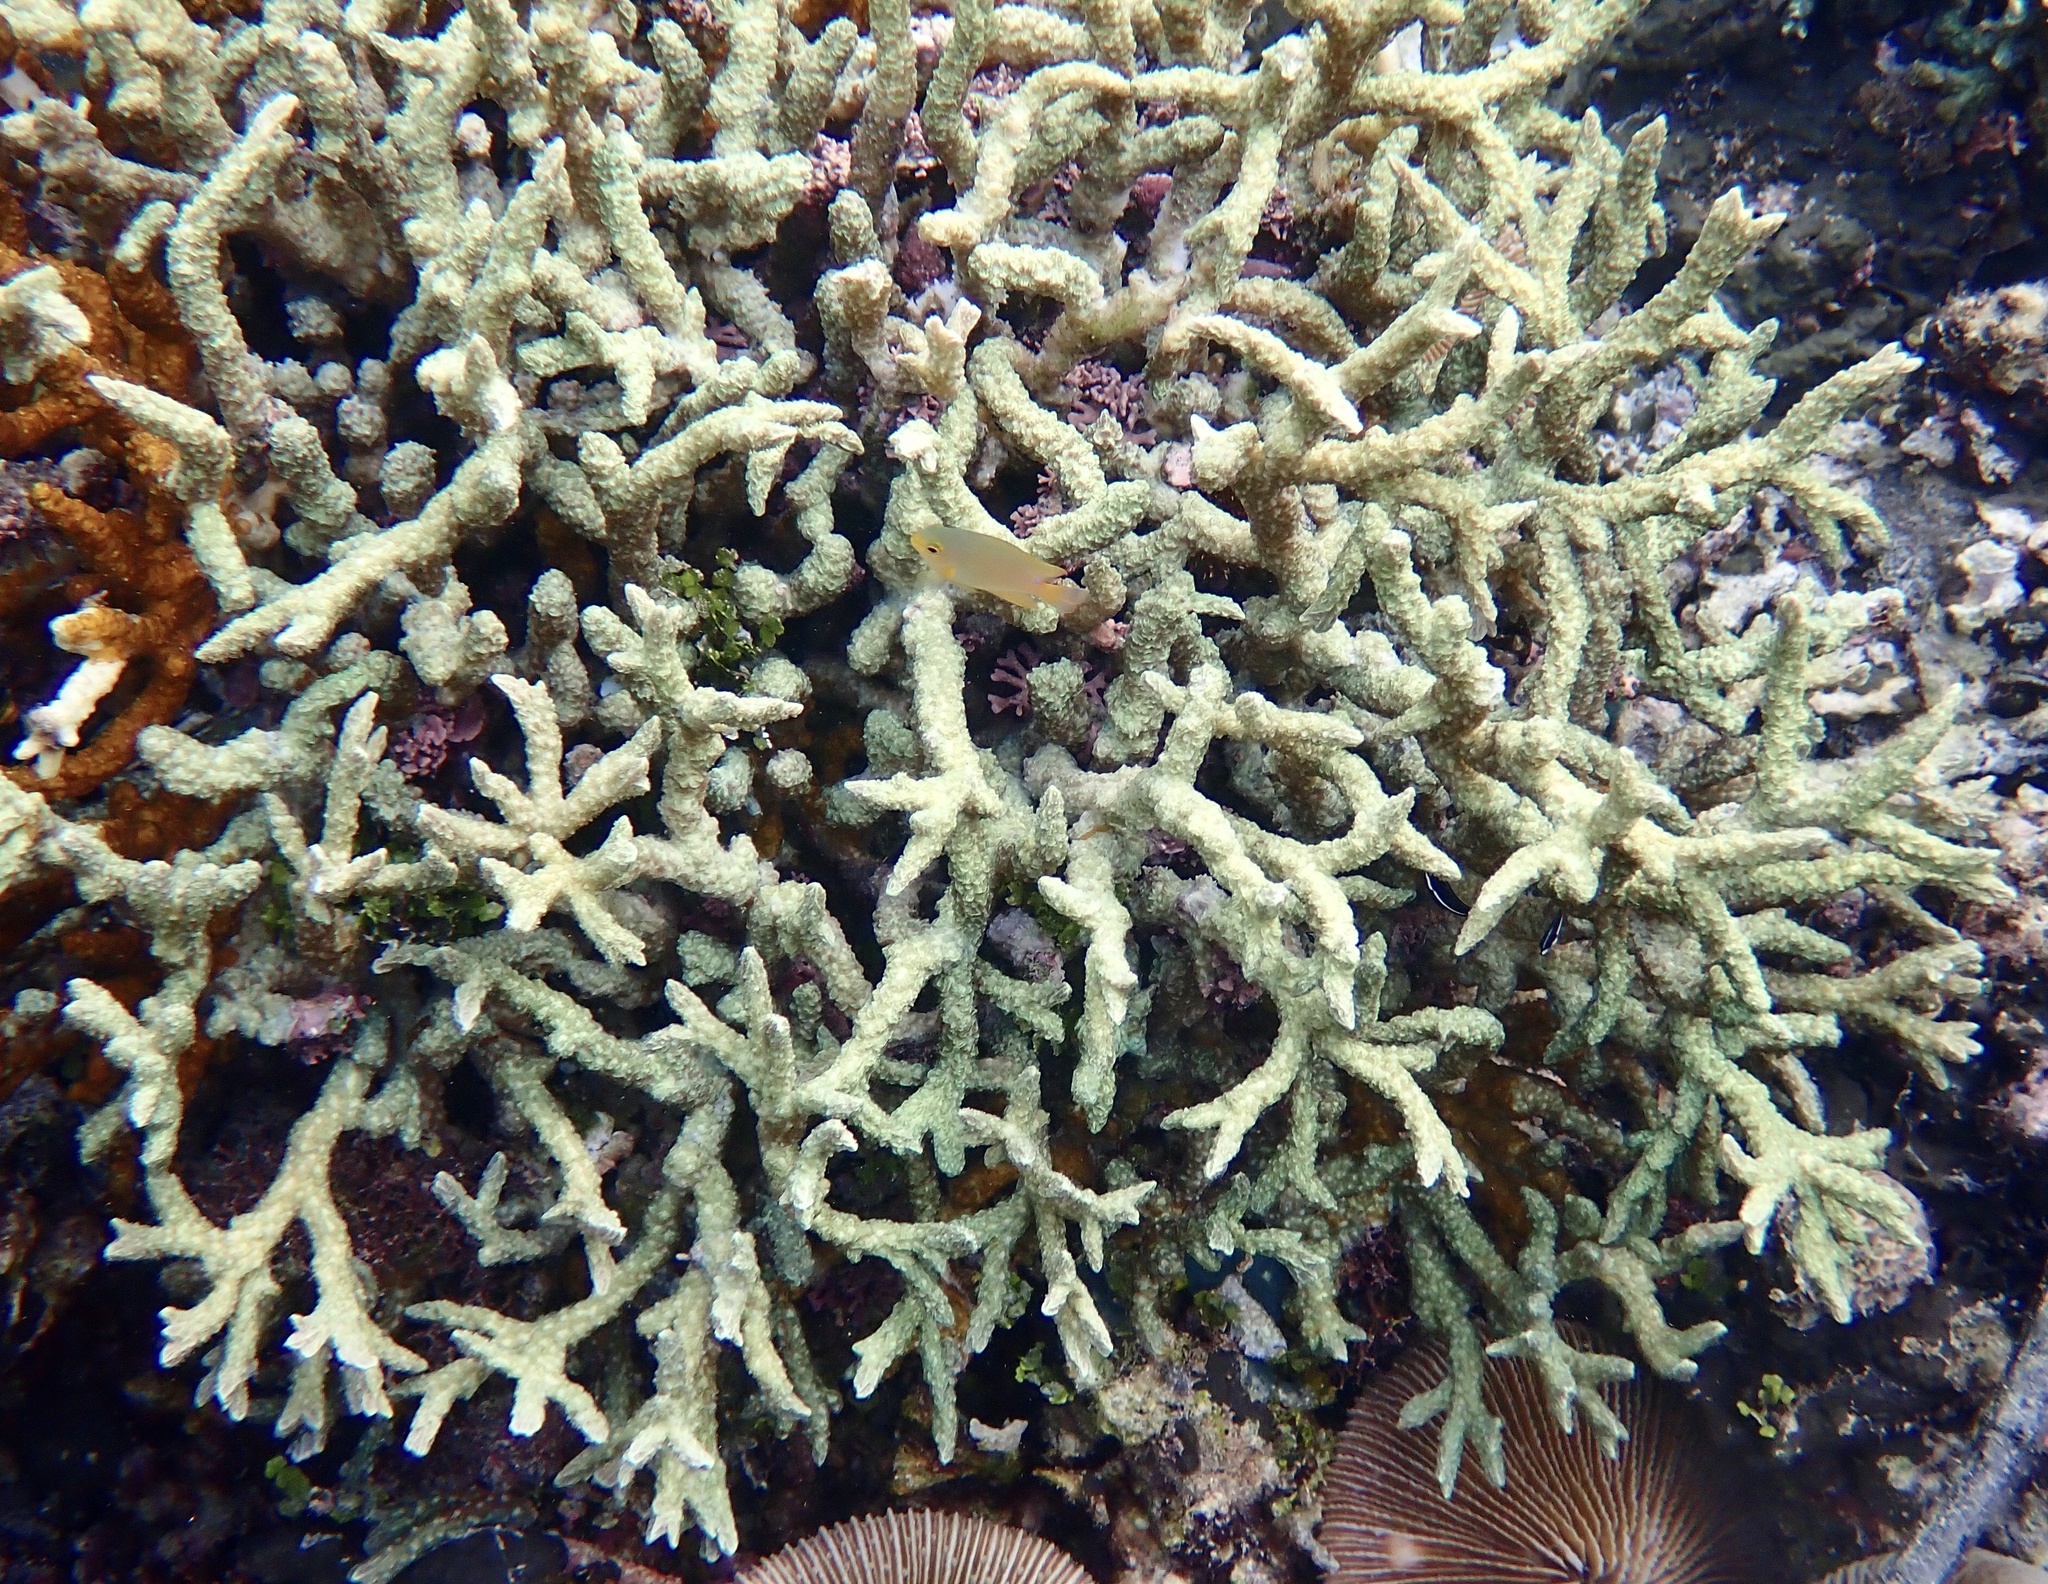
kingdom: Animalia
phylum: Cnidaria
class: Anthozoa
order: Scleractinia
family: Merulinidae
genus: Hydnophora
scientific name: Hydnophora rigida
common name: Spine coral
